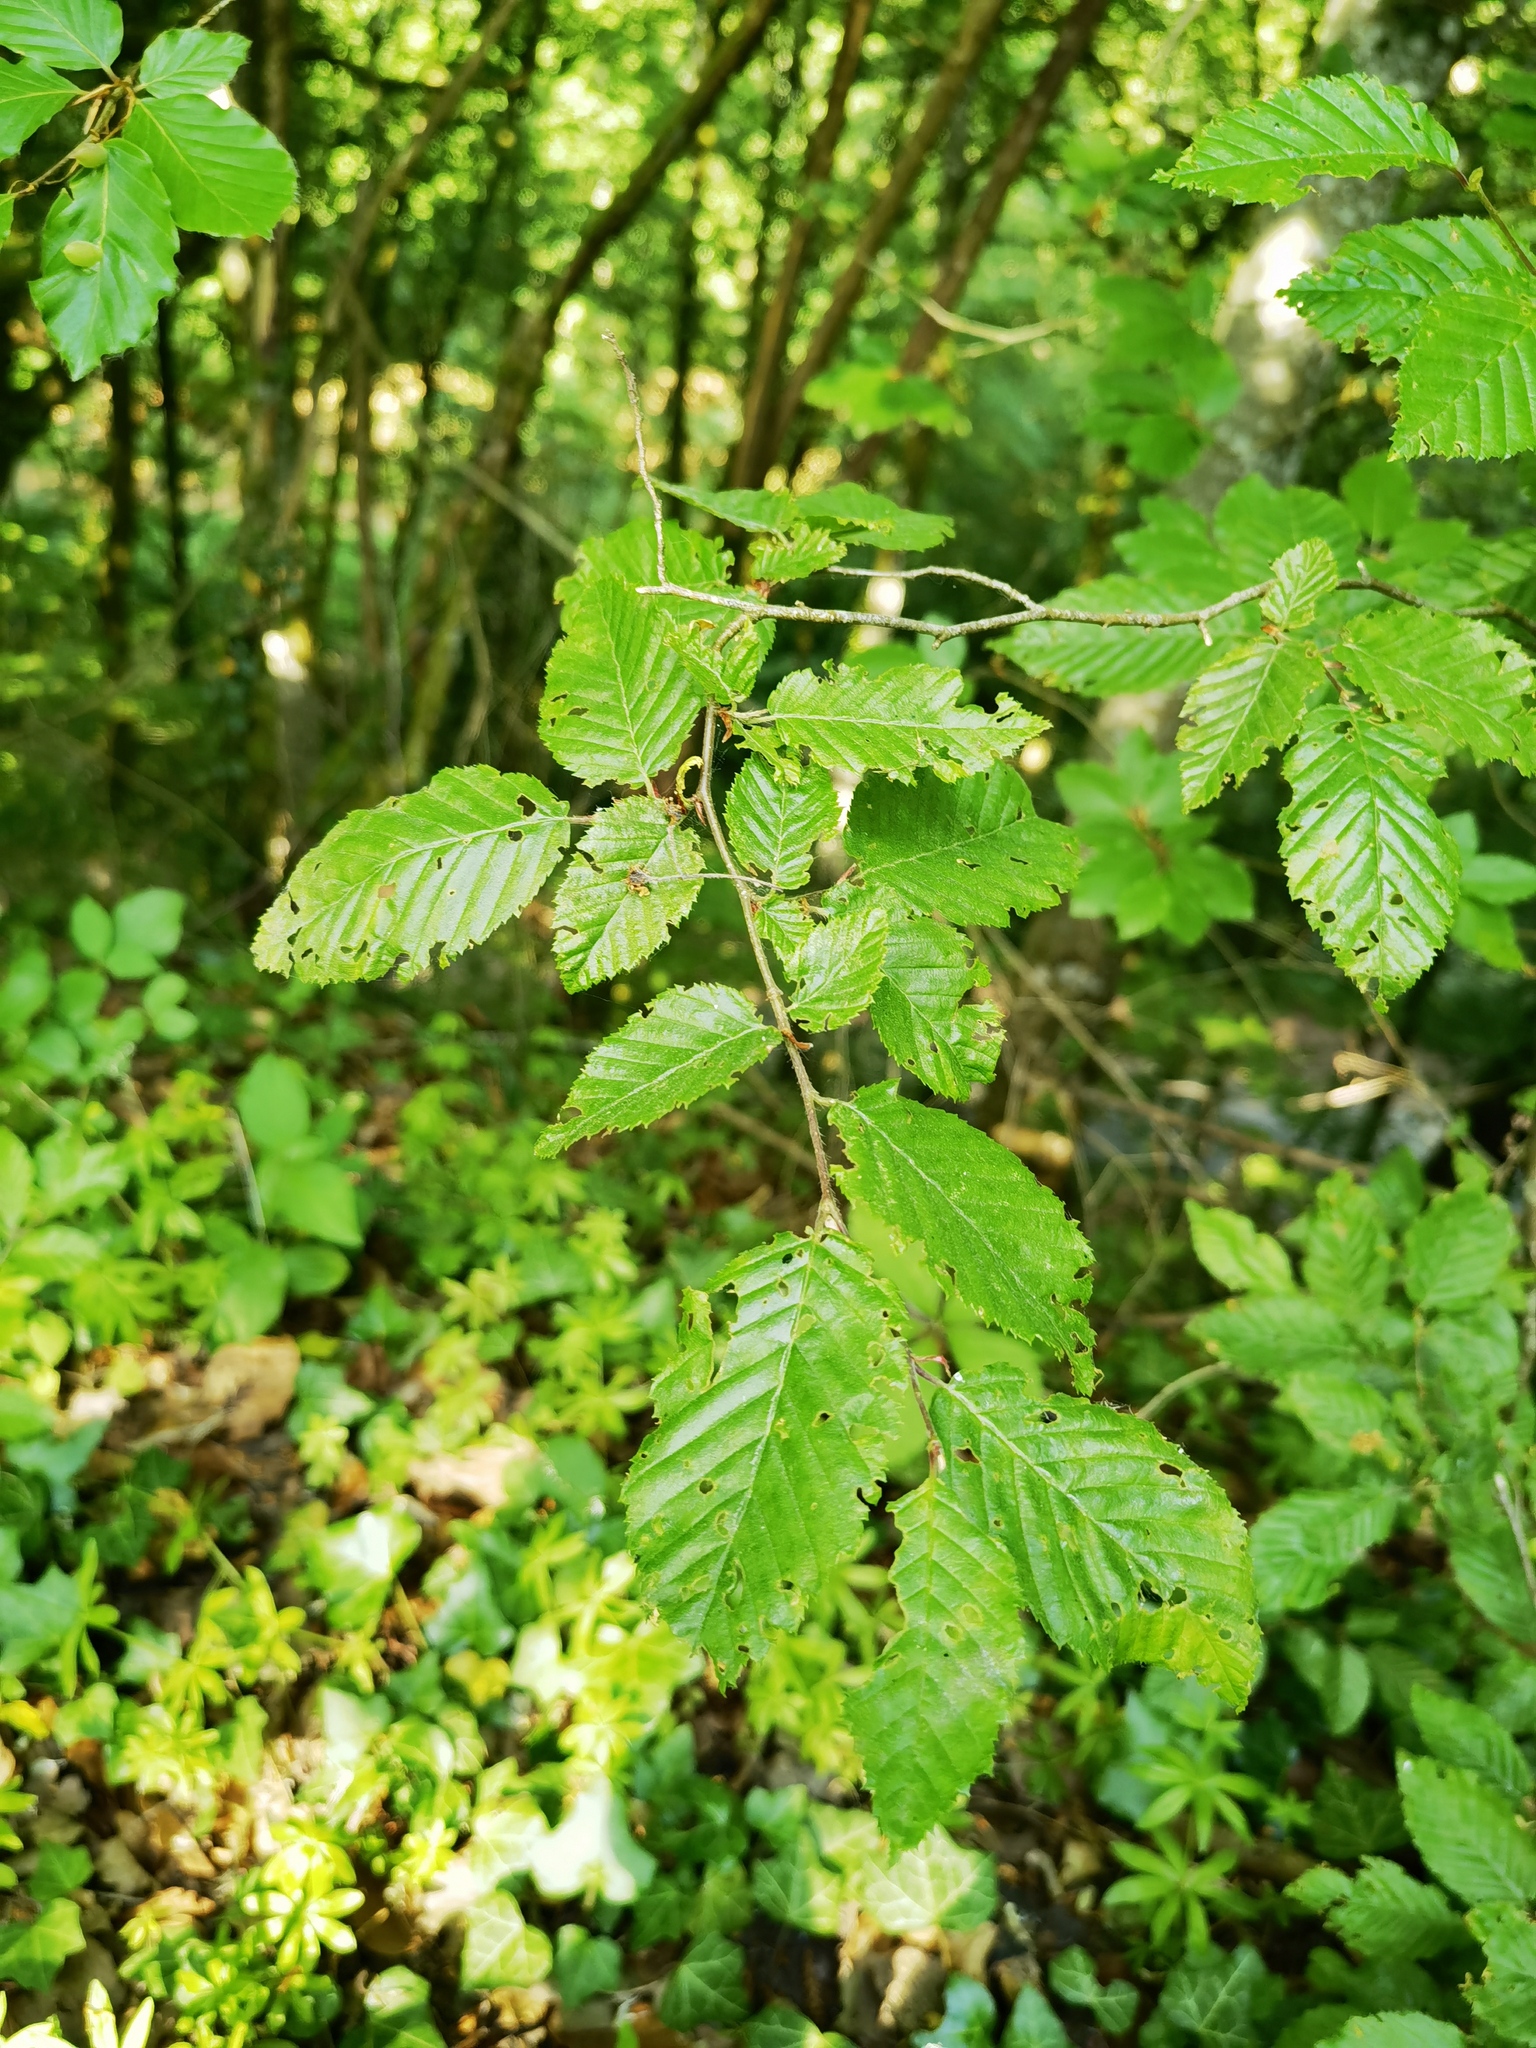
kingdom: Plantae
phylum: Tracheophyta
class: Magnoliopsida
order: Fagales
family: Betulaceae
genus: Carpinus
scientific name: Carpinus betulus
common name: Hornbeam
